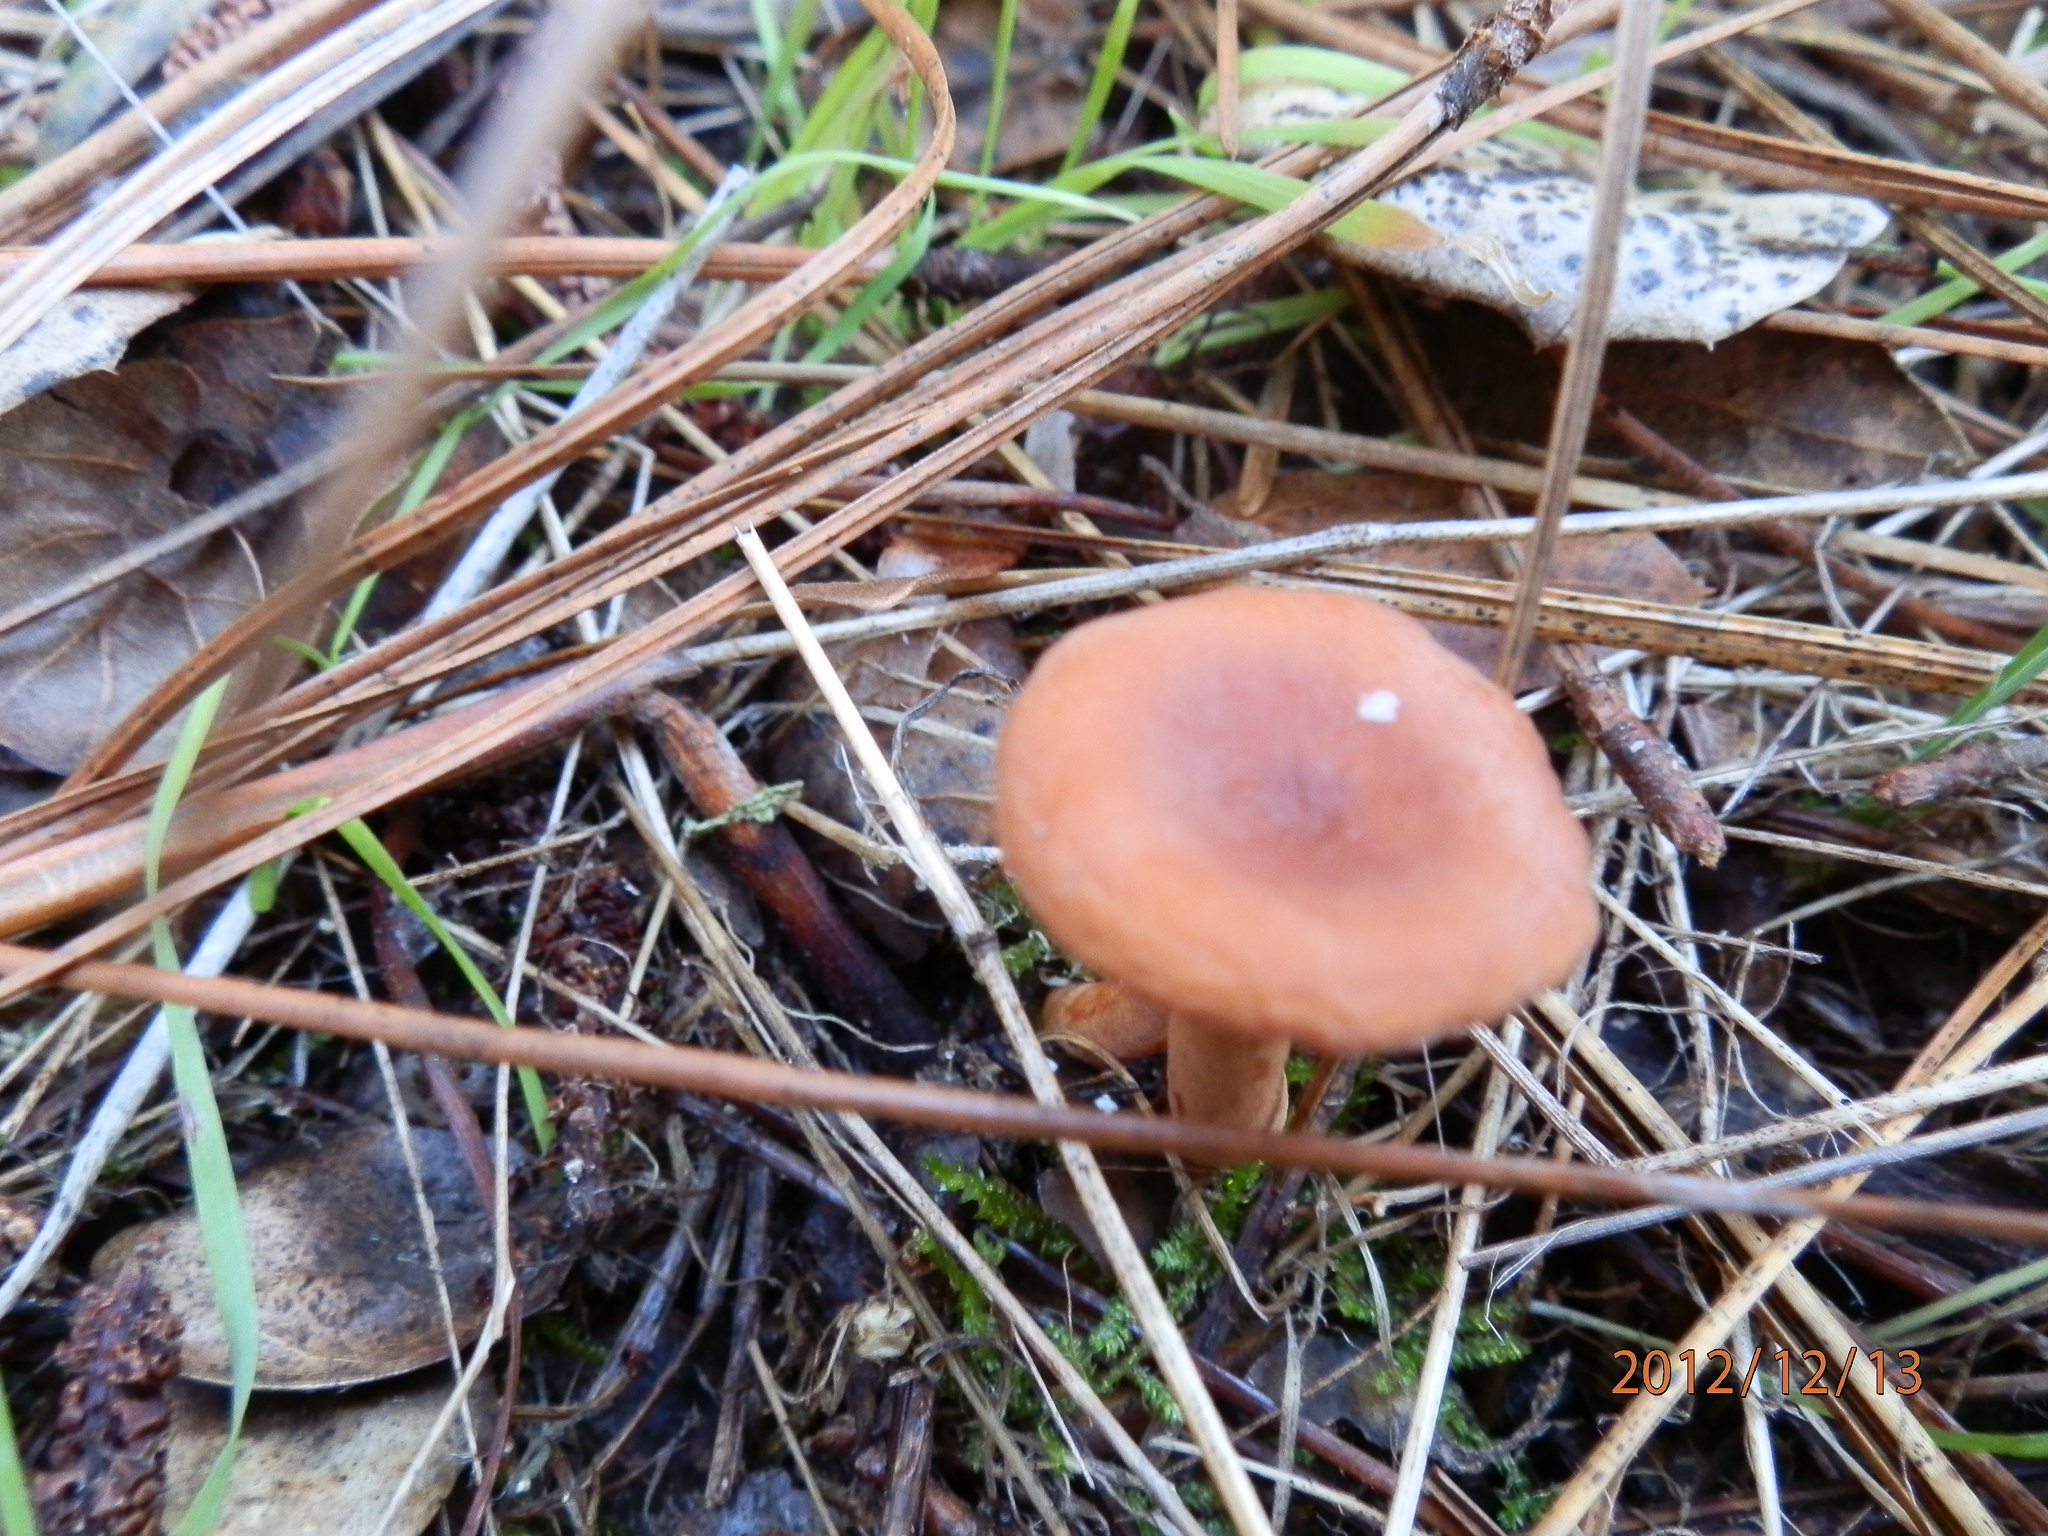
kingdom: Fungi
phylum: Basidiomycota
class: Agaricomycetes
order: Russulales
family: Russulaceae
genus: Lactarius
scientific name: Lactarius rubidus
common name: Candy cap
